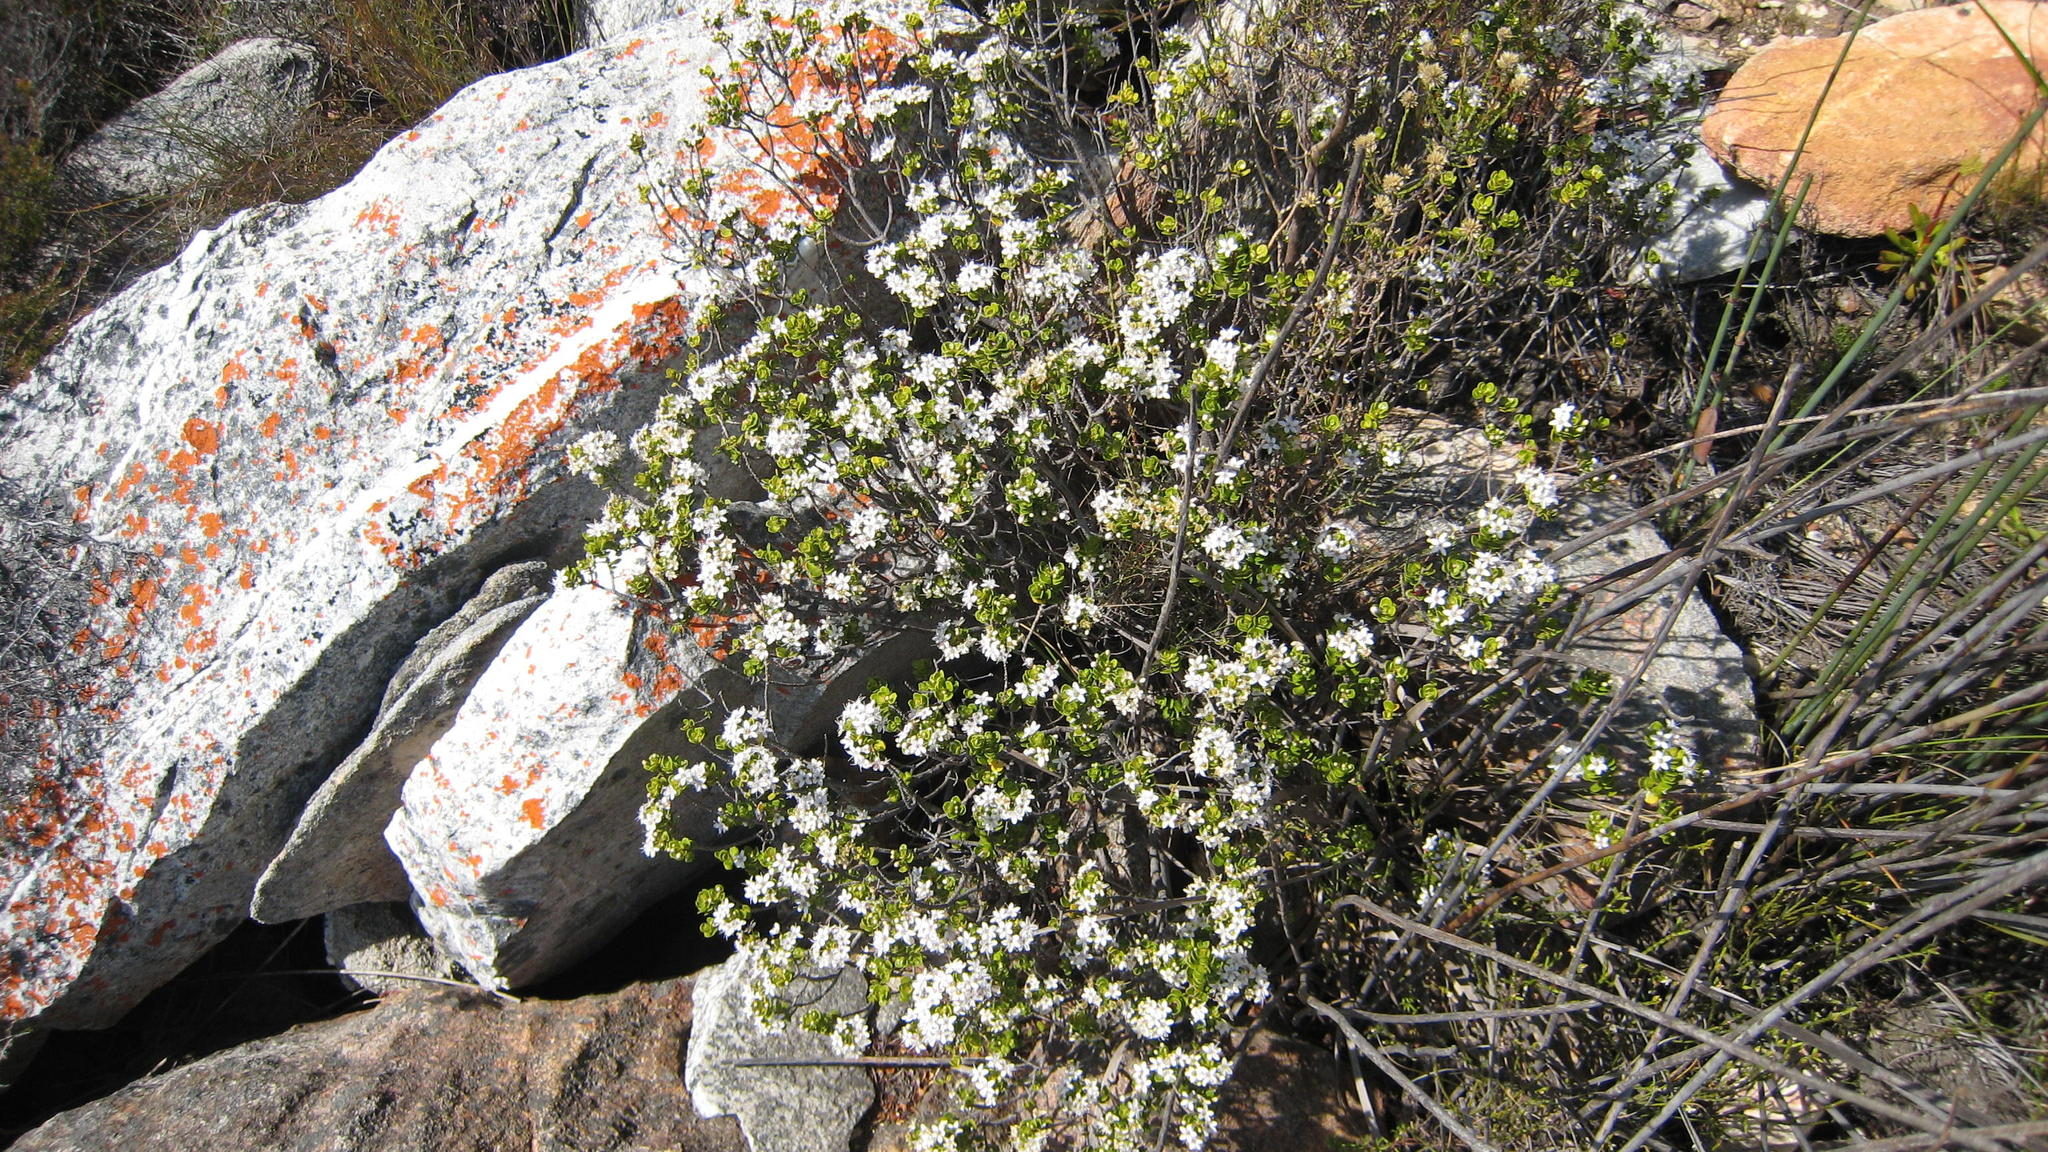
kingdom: Plantae
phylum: Tracheophyta
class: Magnoliopsida
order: Sapindales
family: Rutaceae
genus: Agathosma
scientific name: Agathosma ovata
